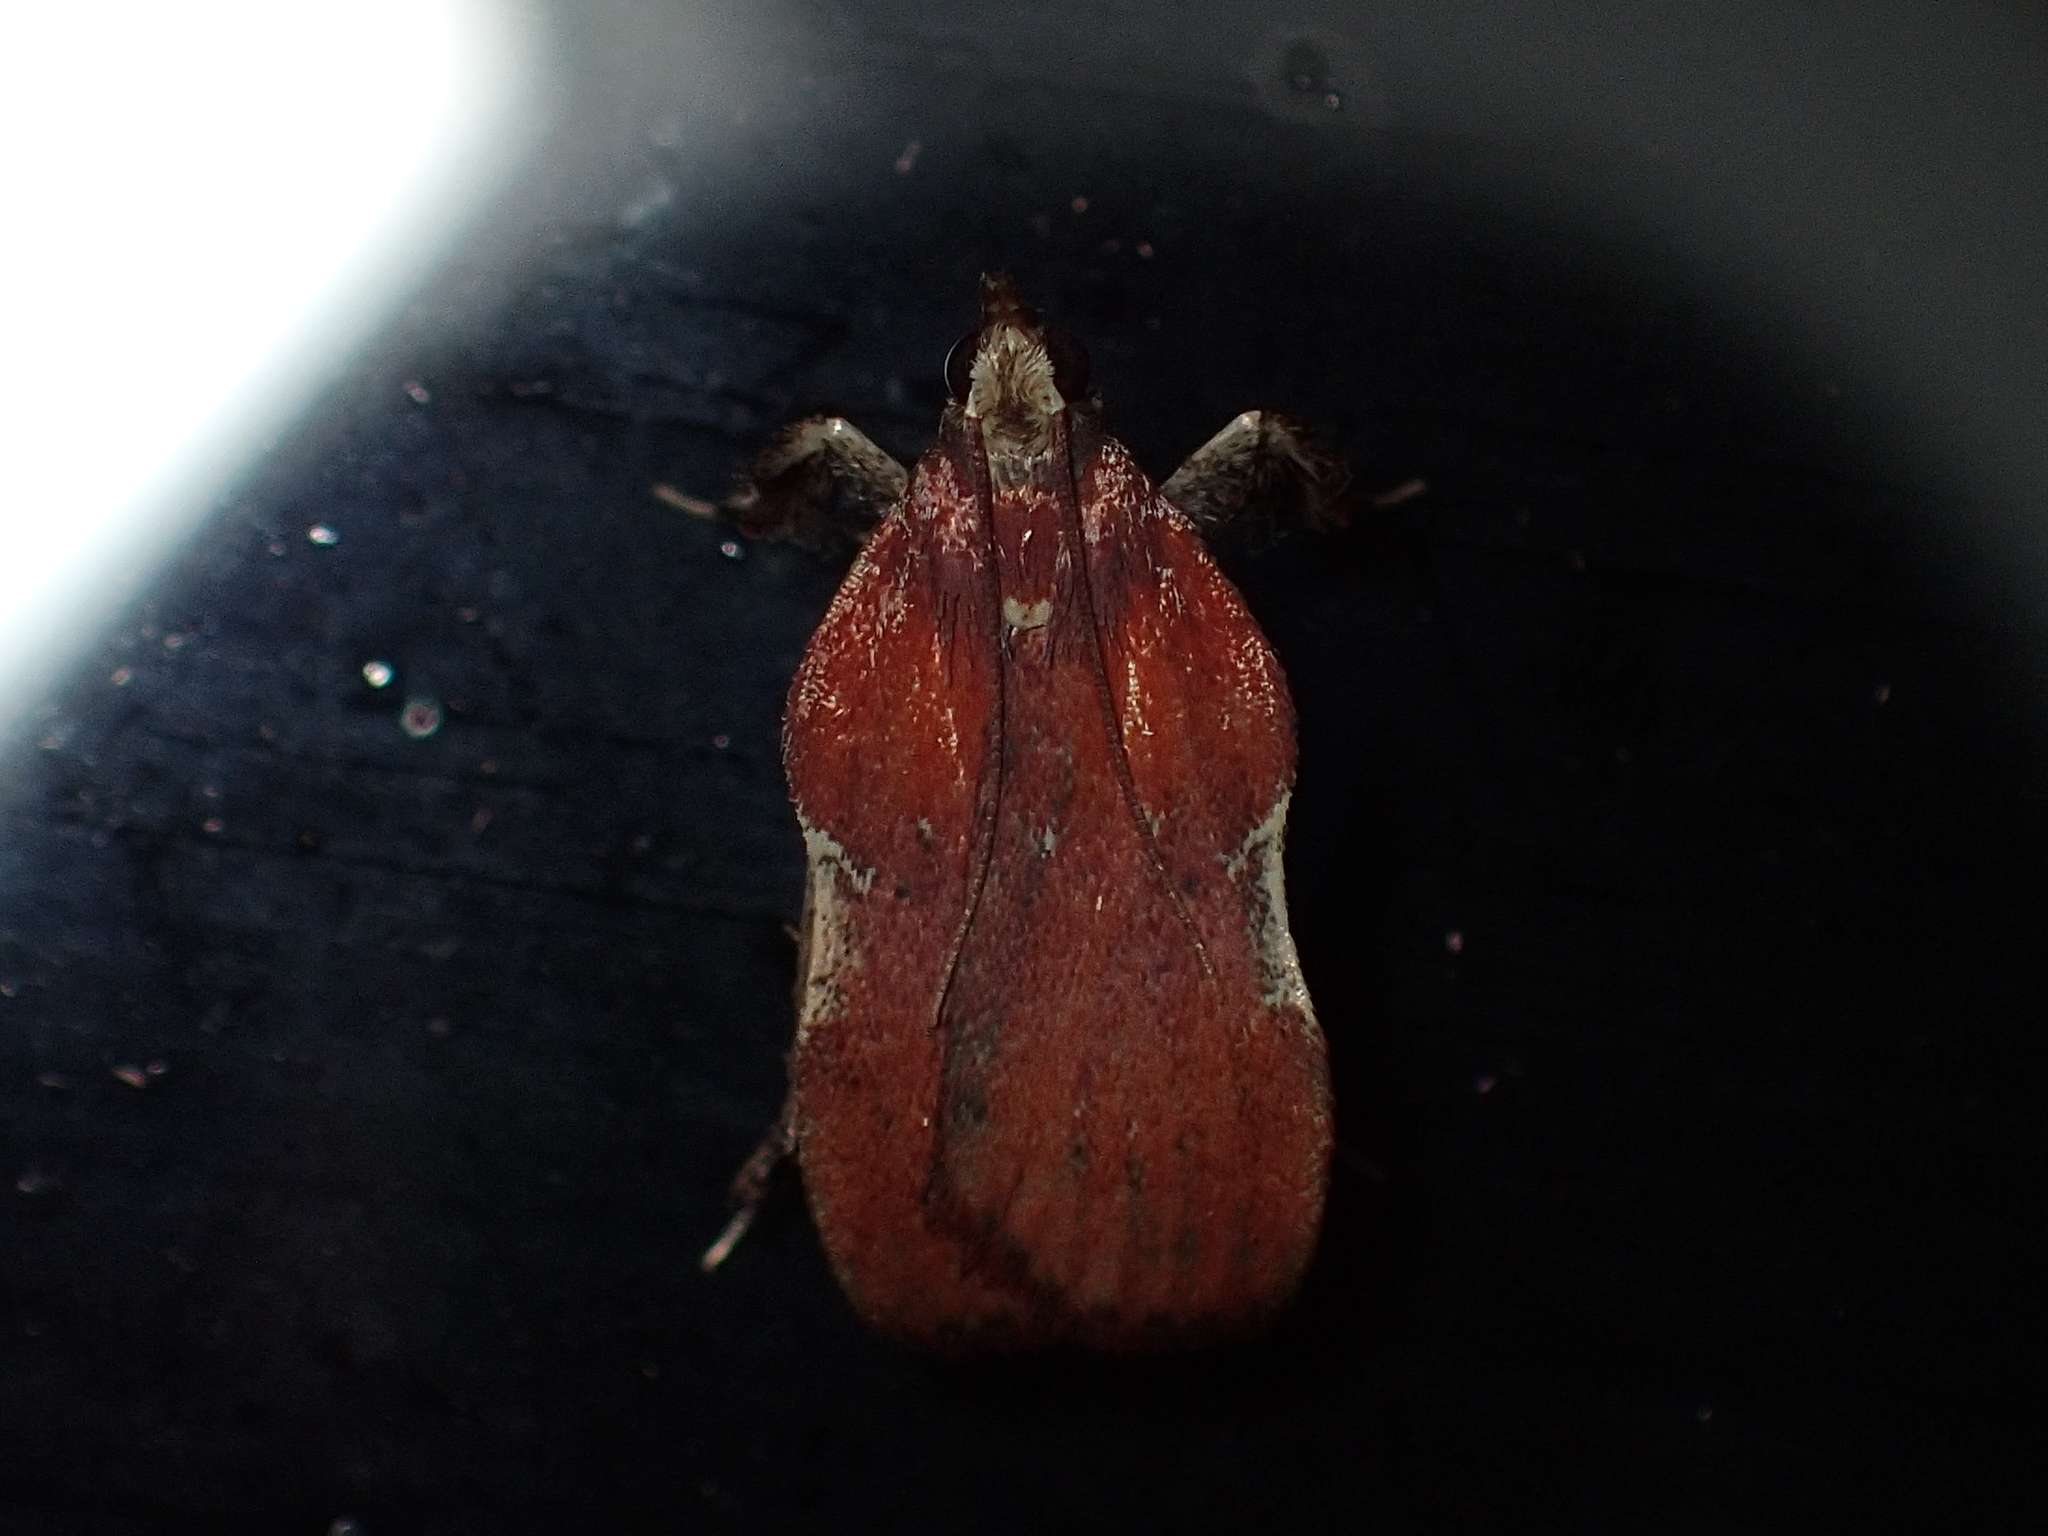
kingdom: Animalia
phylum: Arthropoda
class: Insecta
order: Lepidoptera
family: Pyralidae
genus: Galasa
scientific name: Galasa nigrinodis
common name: Boxwood leaftier moth
